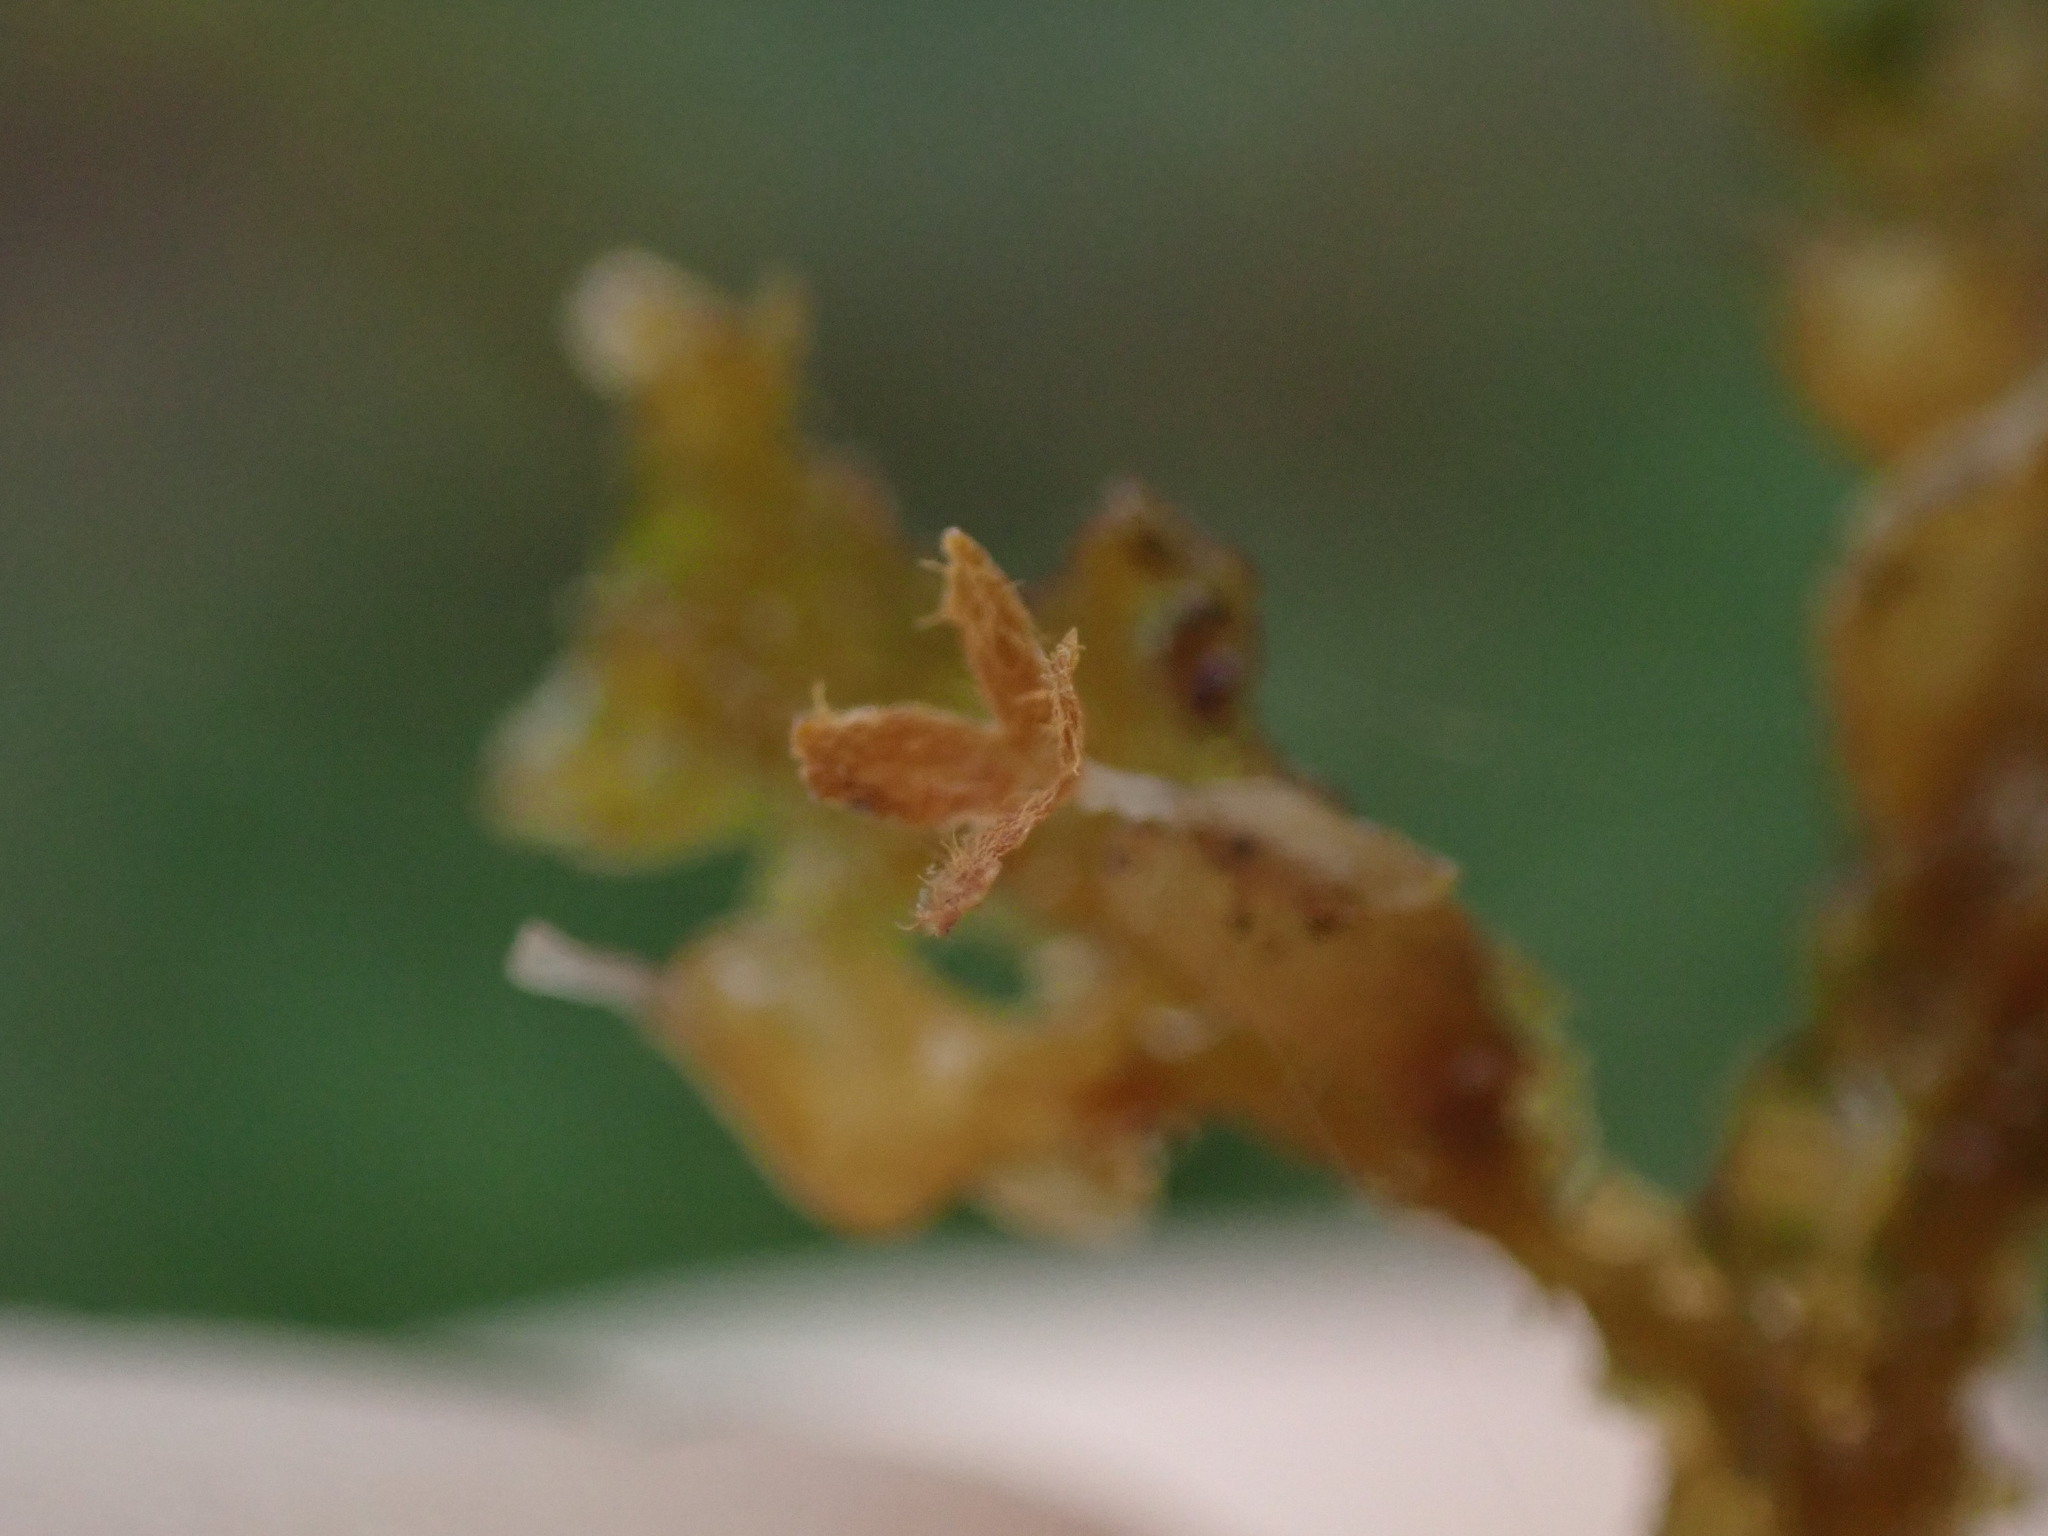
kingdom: Plantae
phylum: Marchantiophyta
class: Jungermanniopsida
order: Porellales
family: Porellaceae
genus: Porella
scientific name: Porella navicularis
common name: Tree ruffle liverwort
